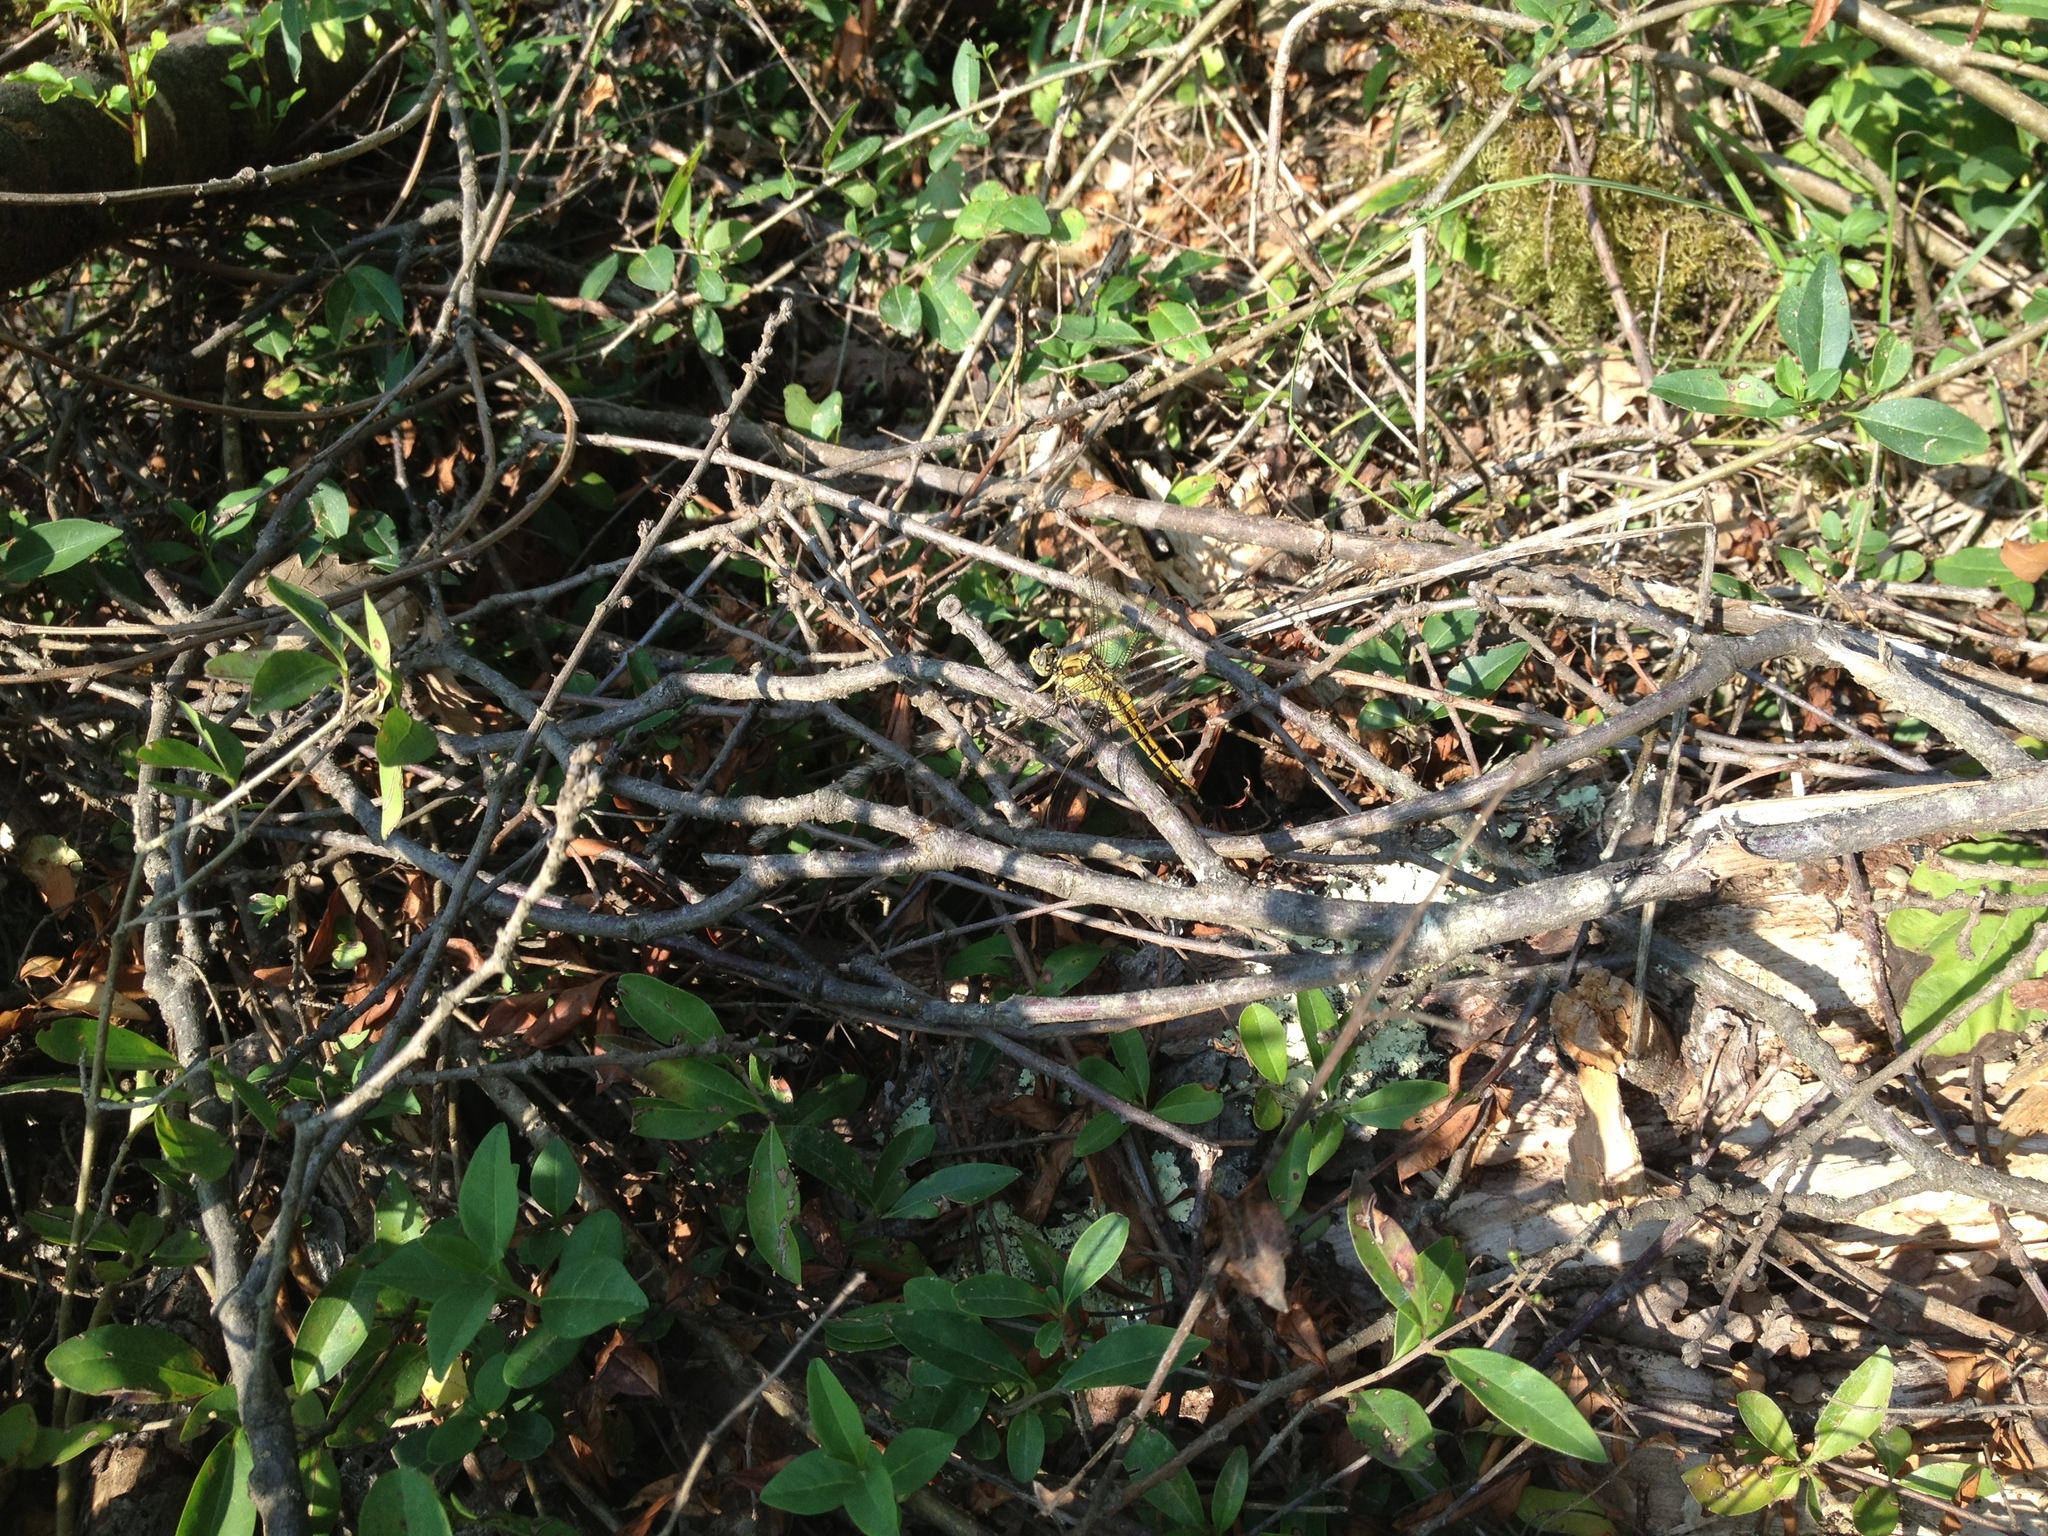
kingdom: Animalia
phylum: Arthropoda
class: Insecta
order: Odonata
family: Libellulidae
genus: Orthetrum
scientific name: Orthetrum cancellatum
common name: Black-tailed skimmer
